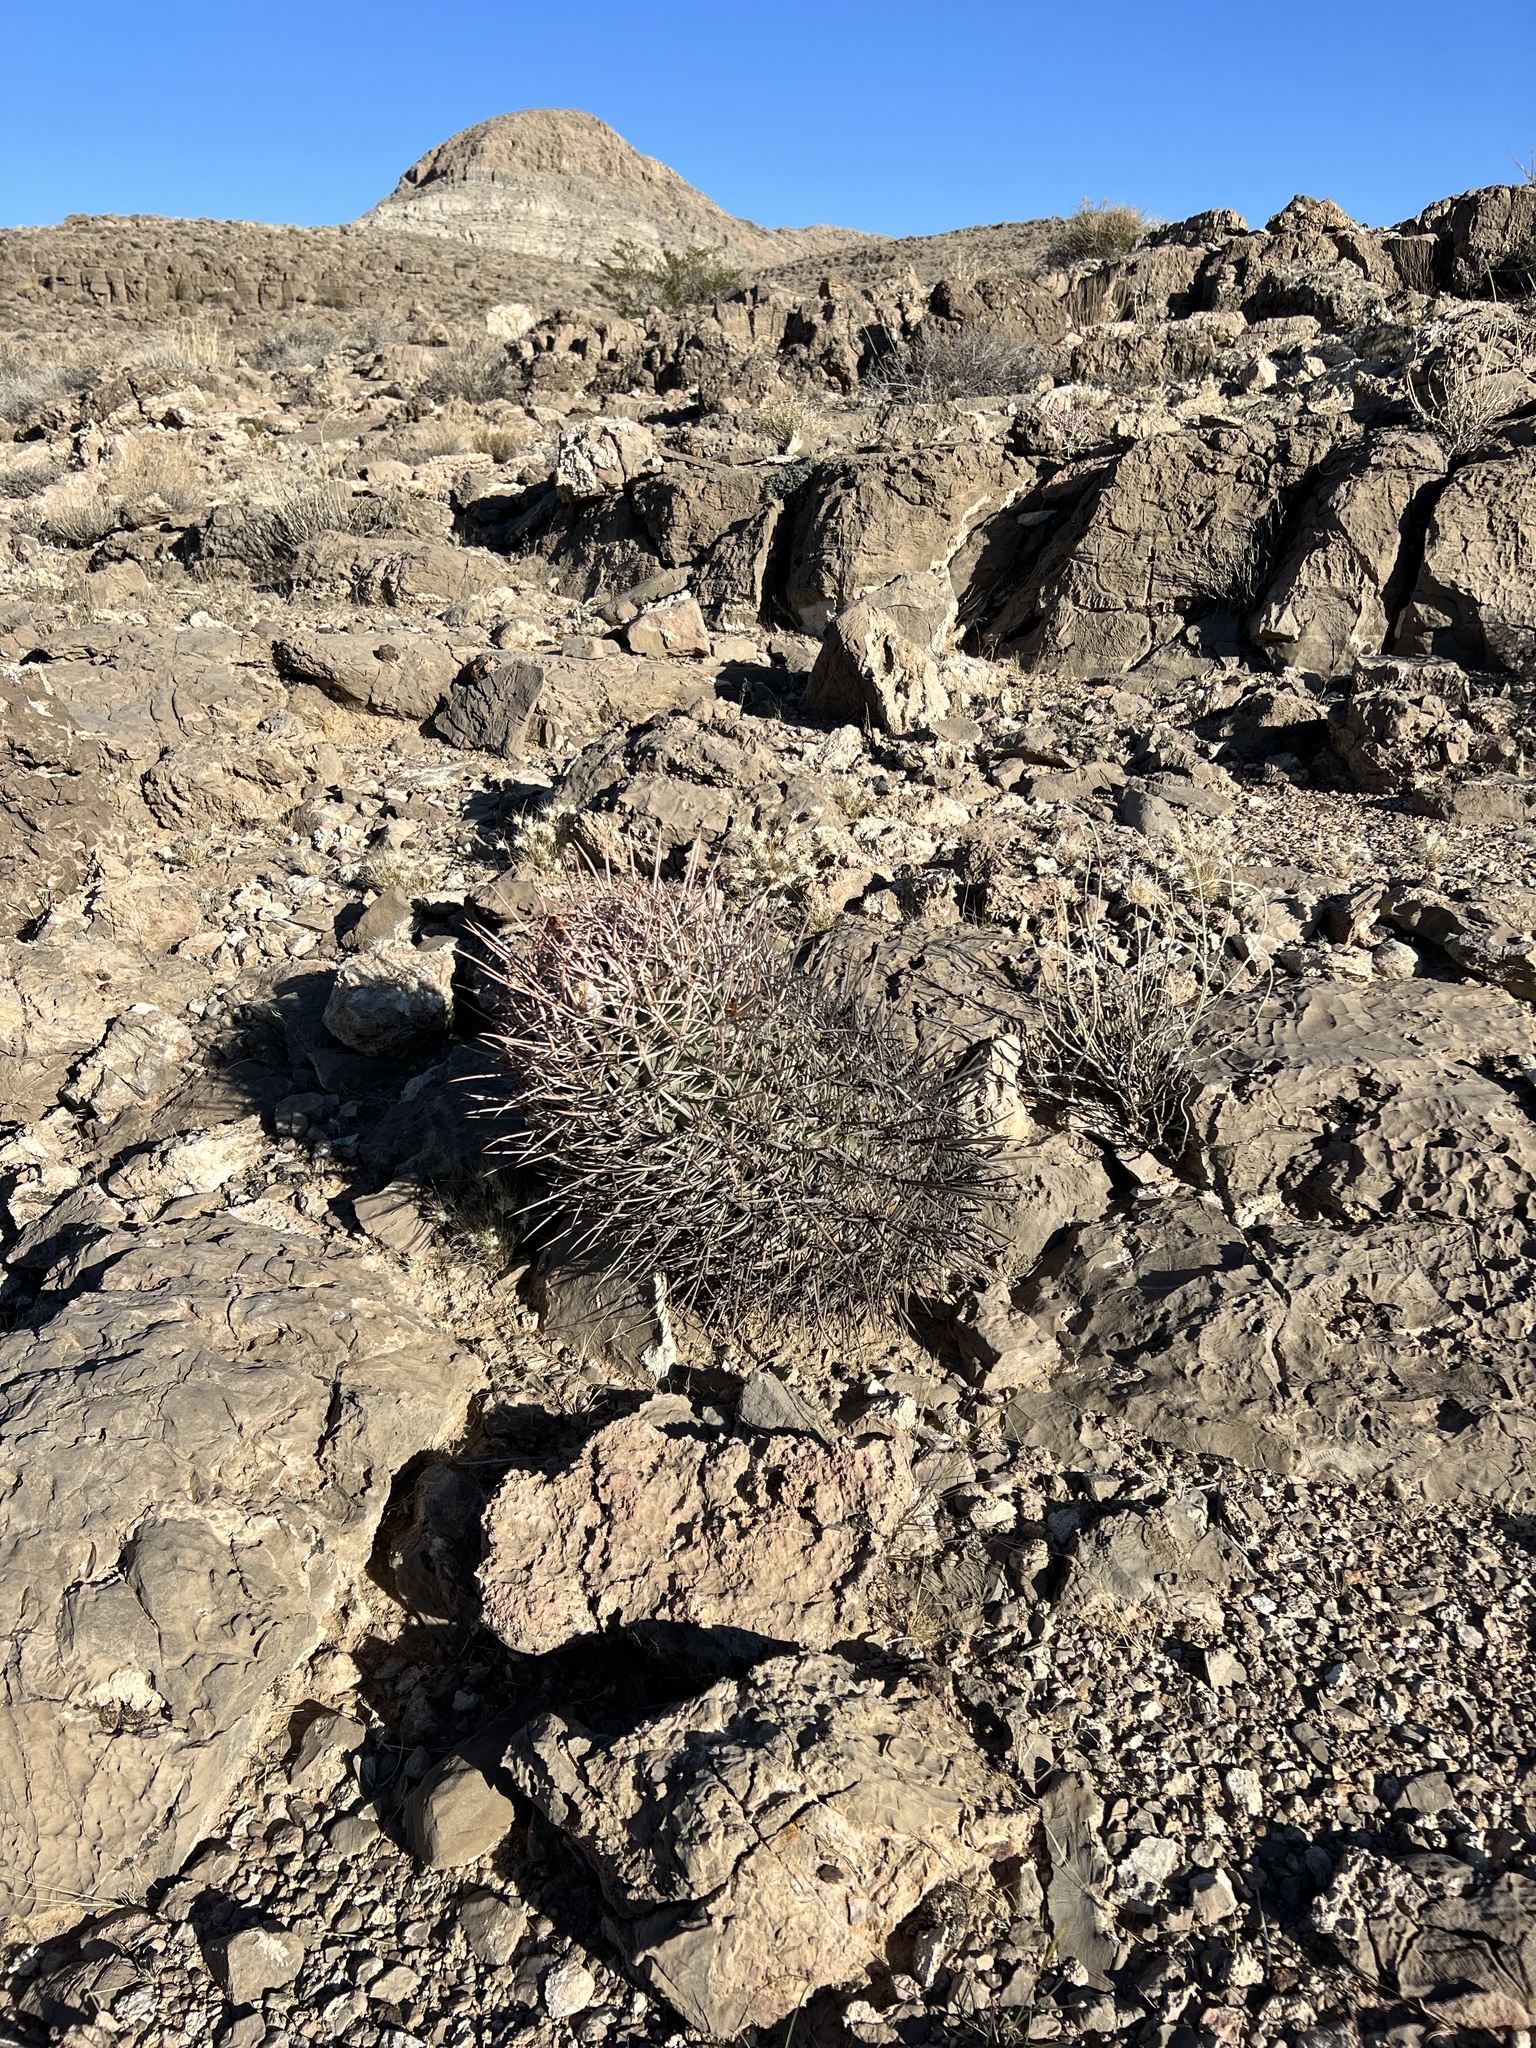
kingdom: Plantae
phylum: Tracheophyta
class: Magnoliopsida
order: Caryophyllales
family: Cactaceae
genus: Echinocactus
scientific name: Echinocactus polycephalus
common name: Cottontop cactus
